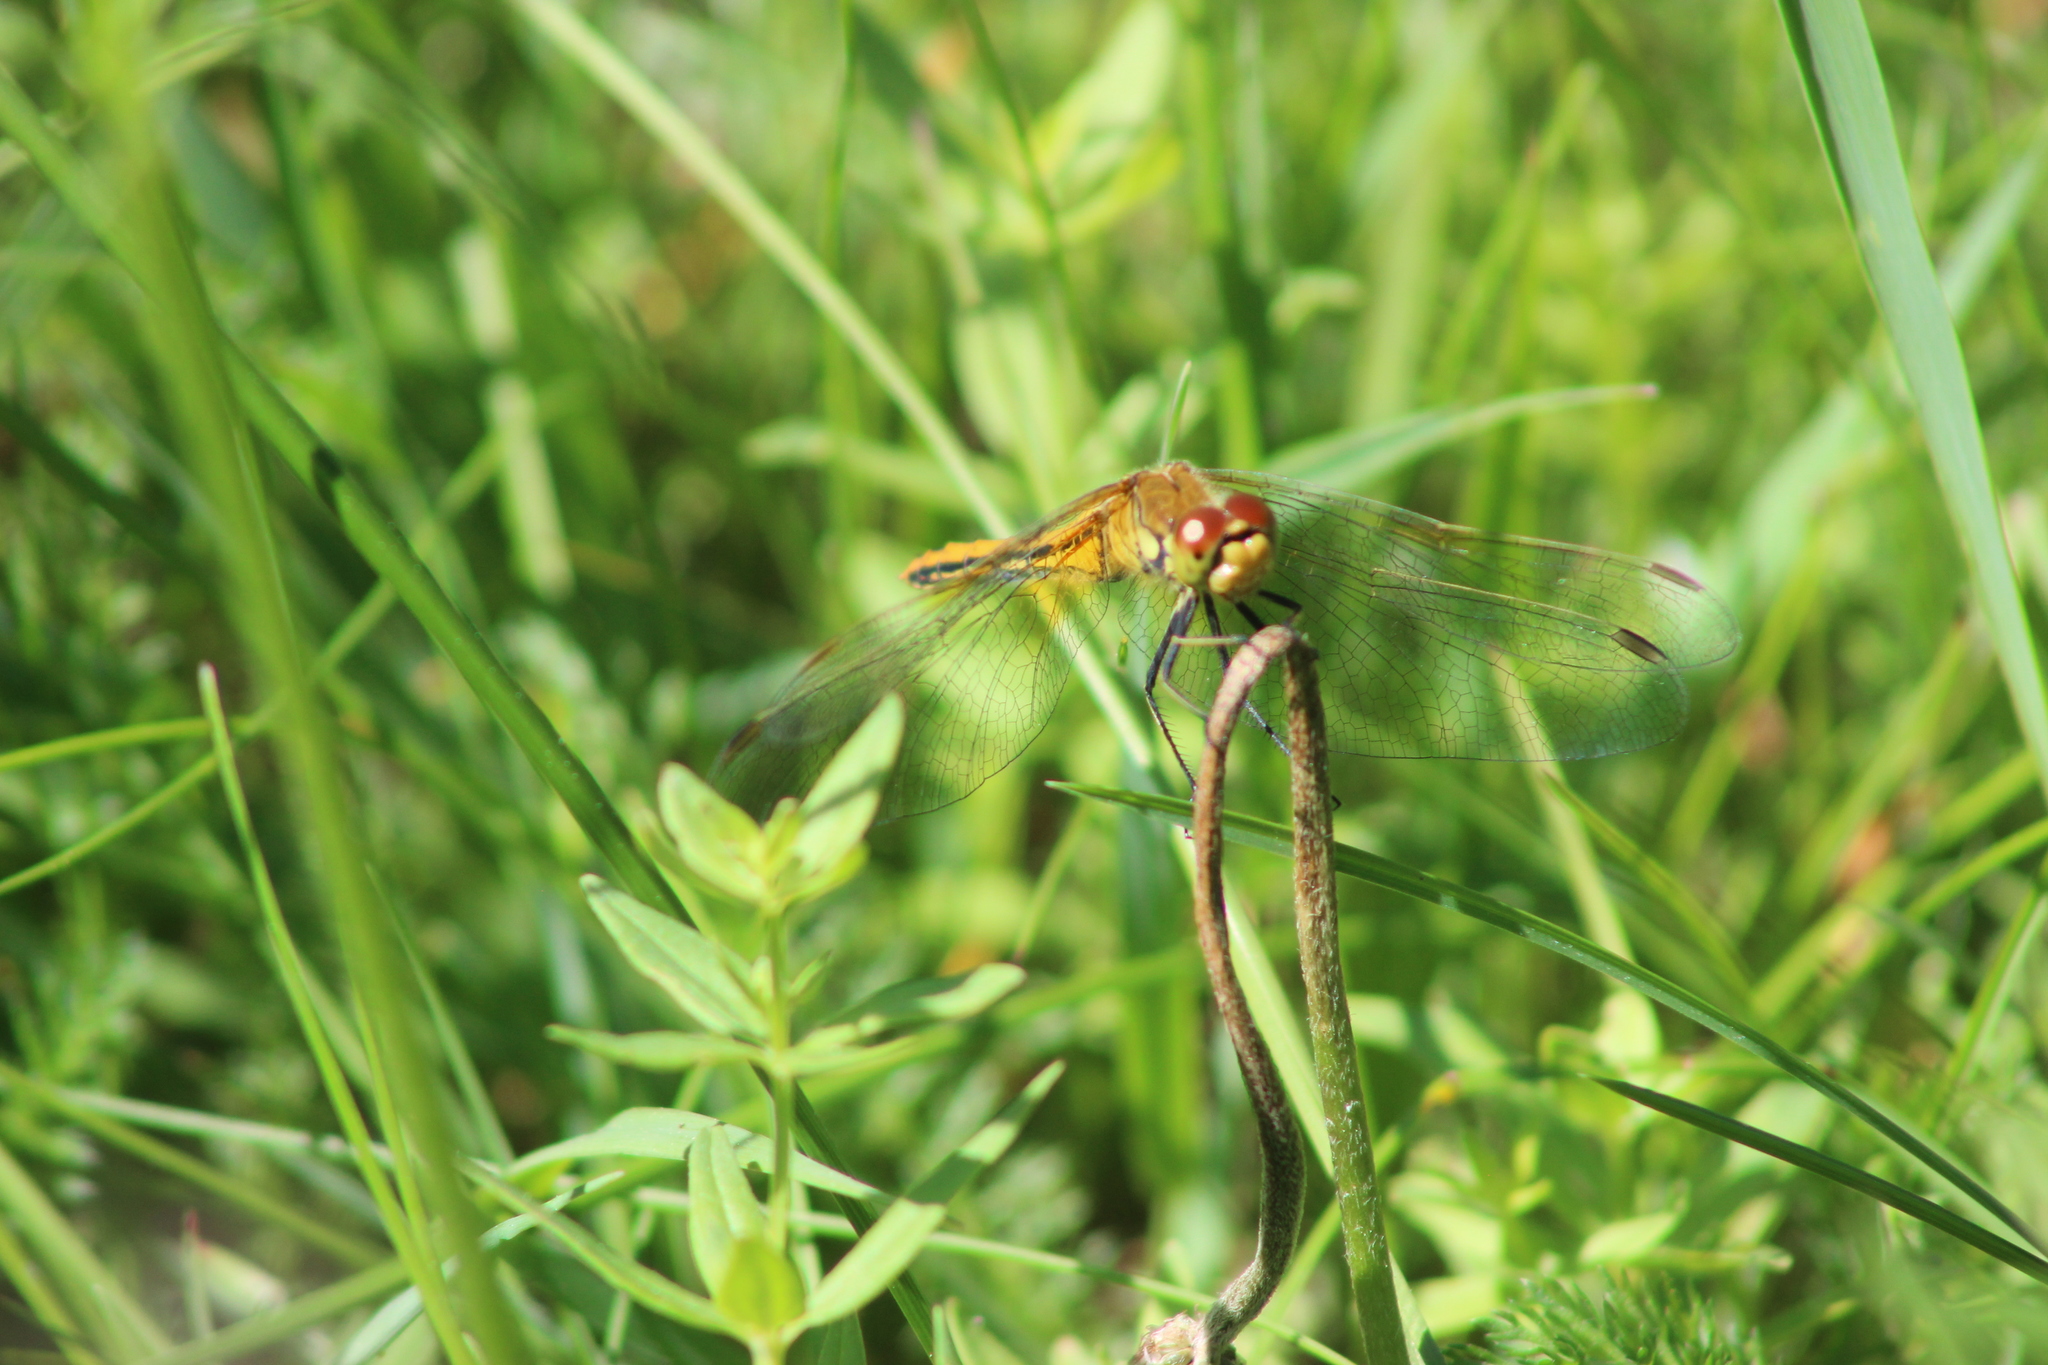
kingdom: Animalia
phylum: Arthropoda
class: Insecta
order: Odonata
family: Libellulidae
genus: Sympetrum
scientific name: Sympetrum flaveolum
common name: Yellow-winged darter
